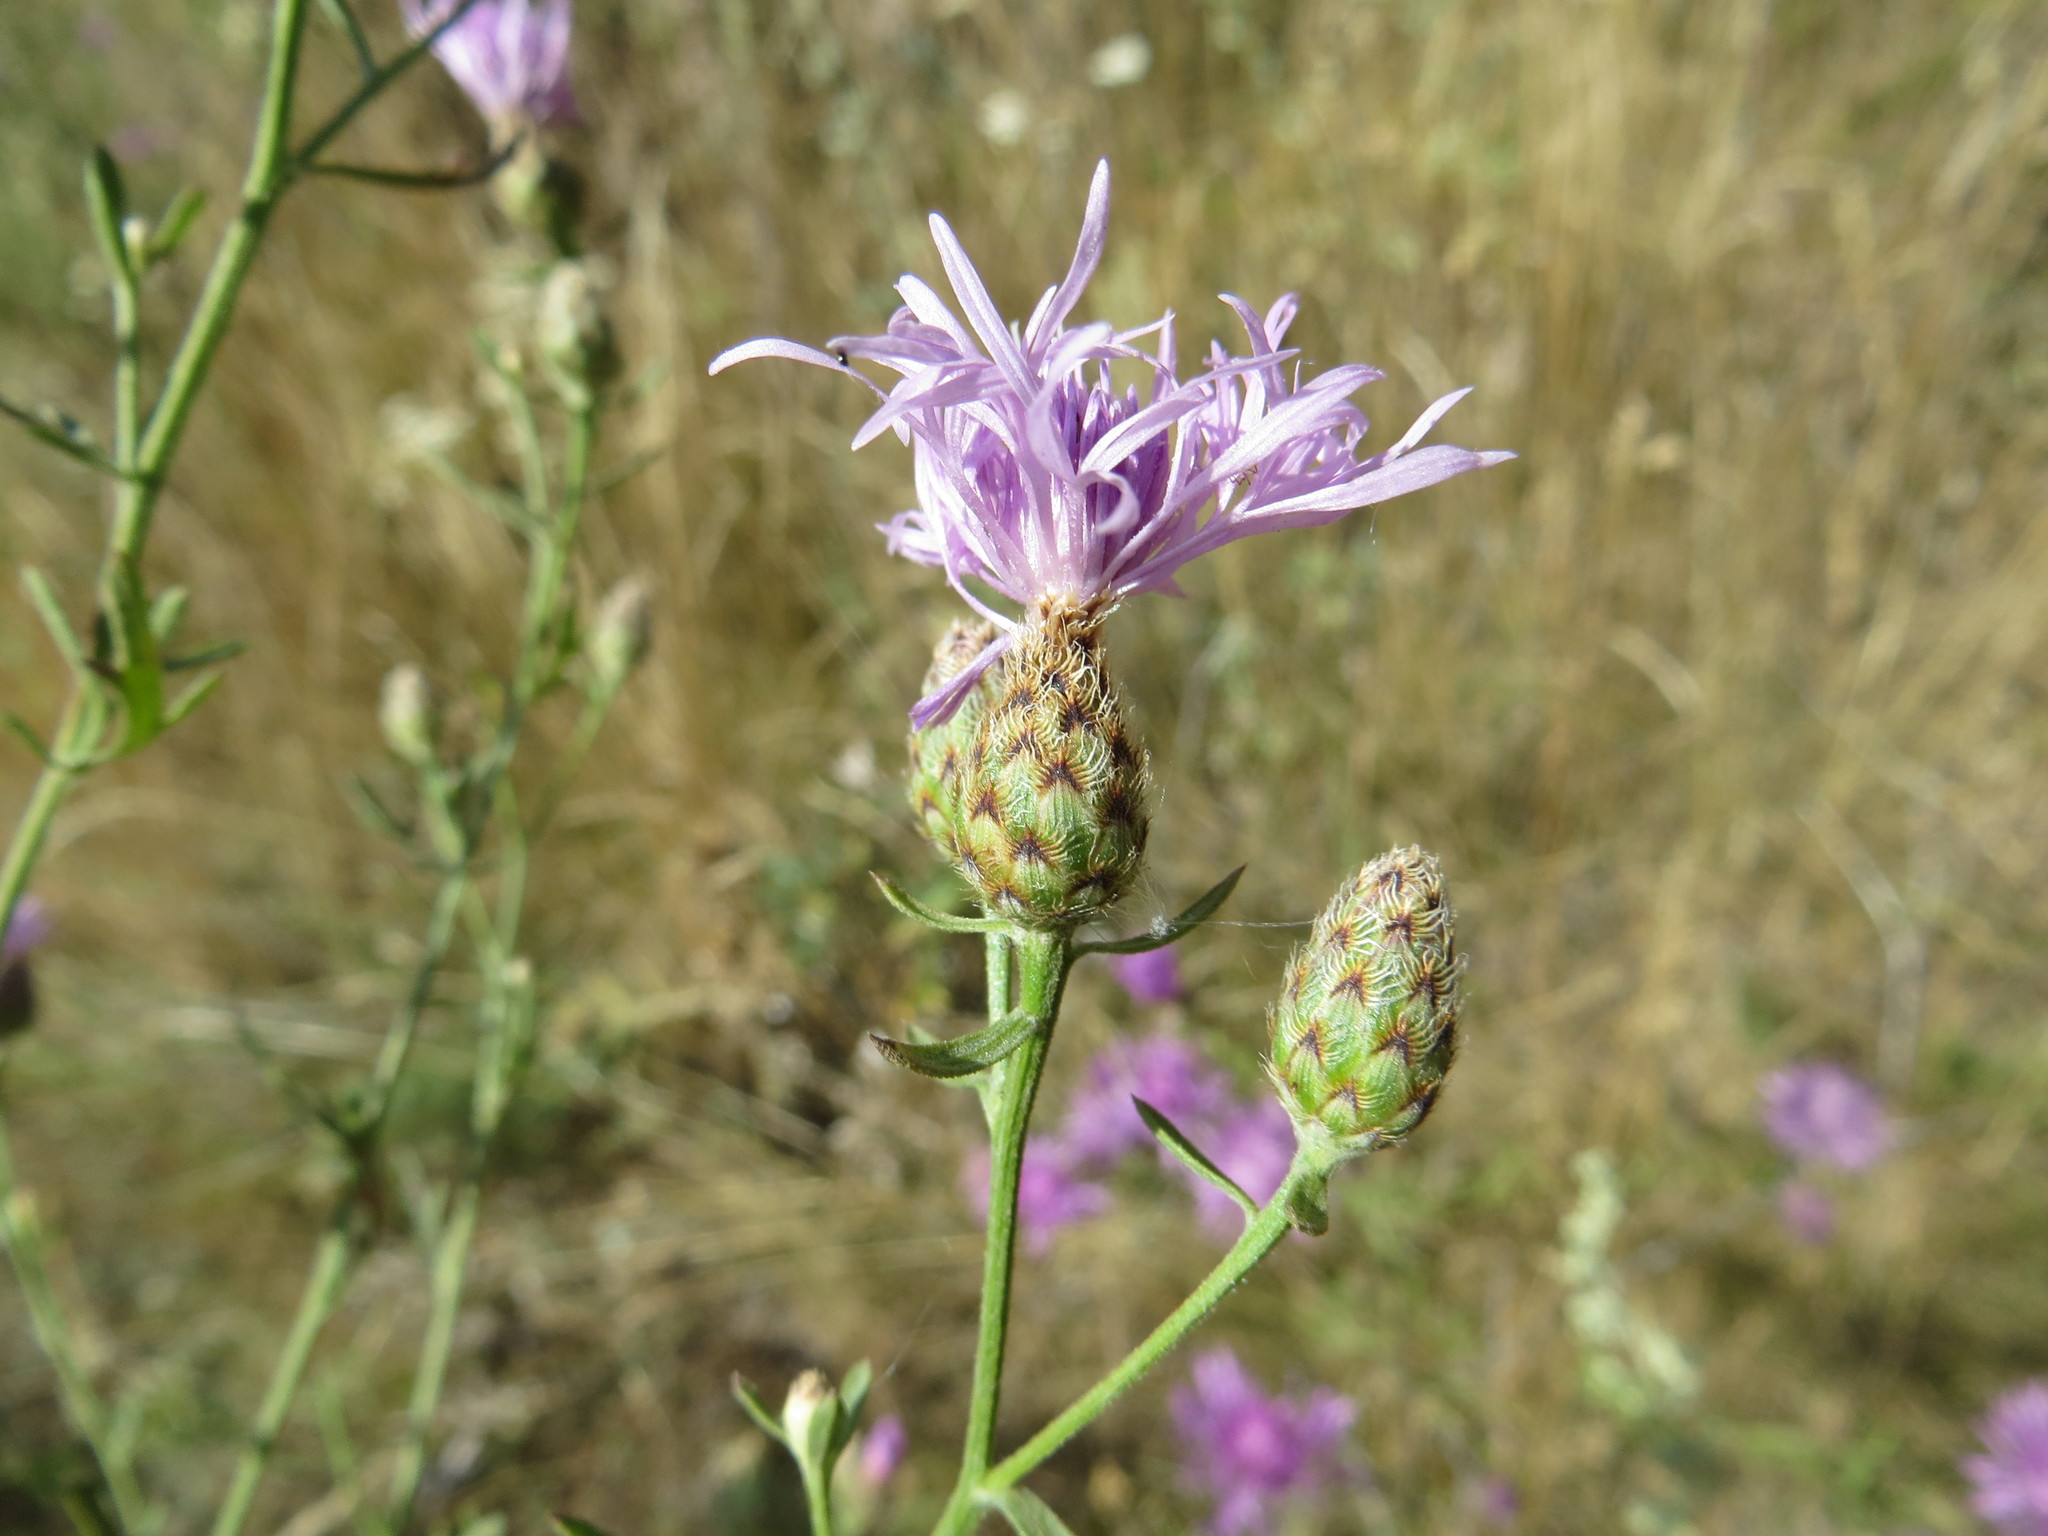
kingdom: Plantae
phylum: Tracheophyta
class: Magnoliopsida
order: Asterales
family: Asteraceae
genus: Centaurea
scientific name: Centaurea stoebe
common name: Spotted knapweed
